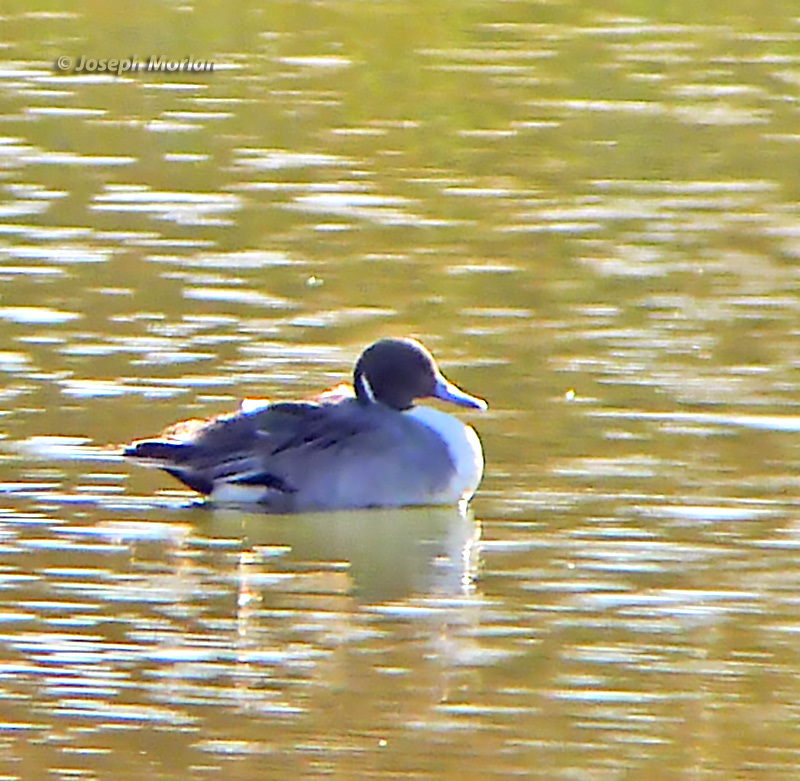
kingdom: Animalia
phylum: Chordata
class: Aves
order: Anseriformes
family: Anatidae
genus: Anas
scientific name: Anas acuta
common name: Northern pintail
